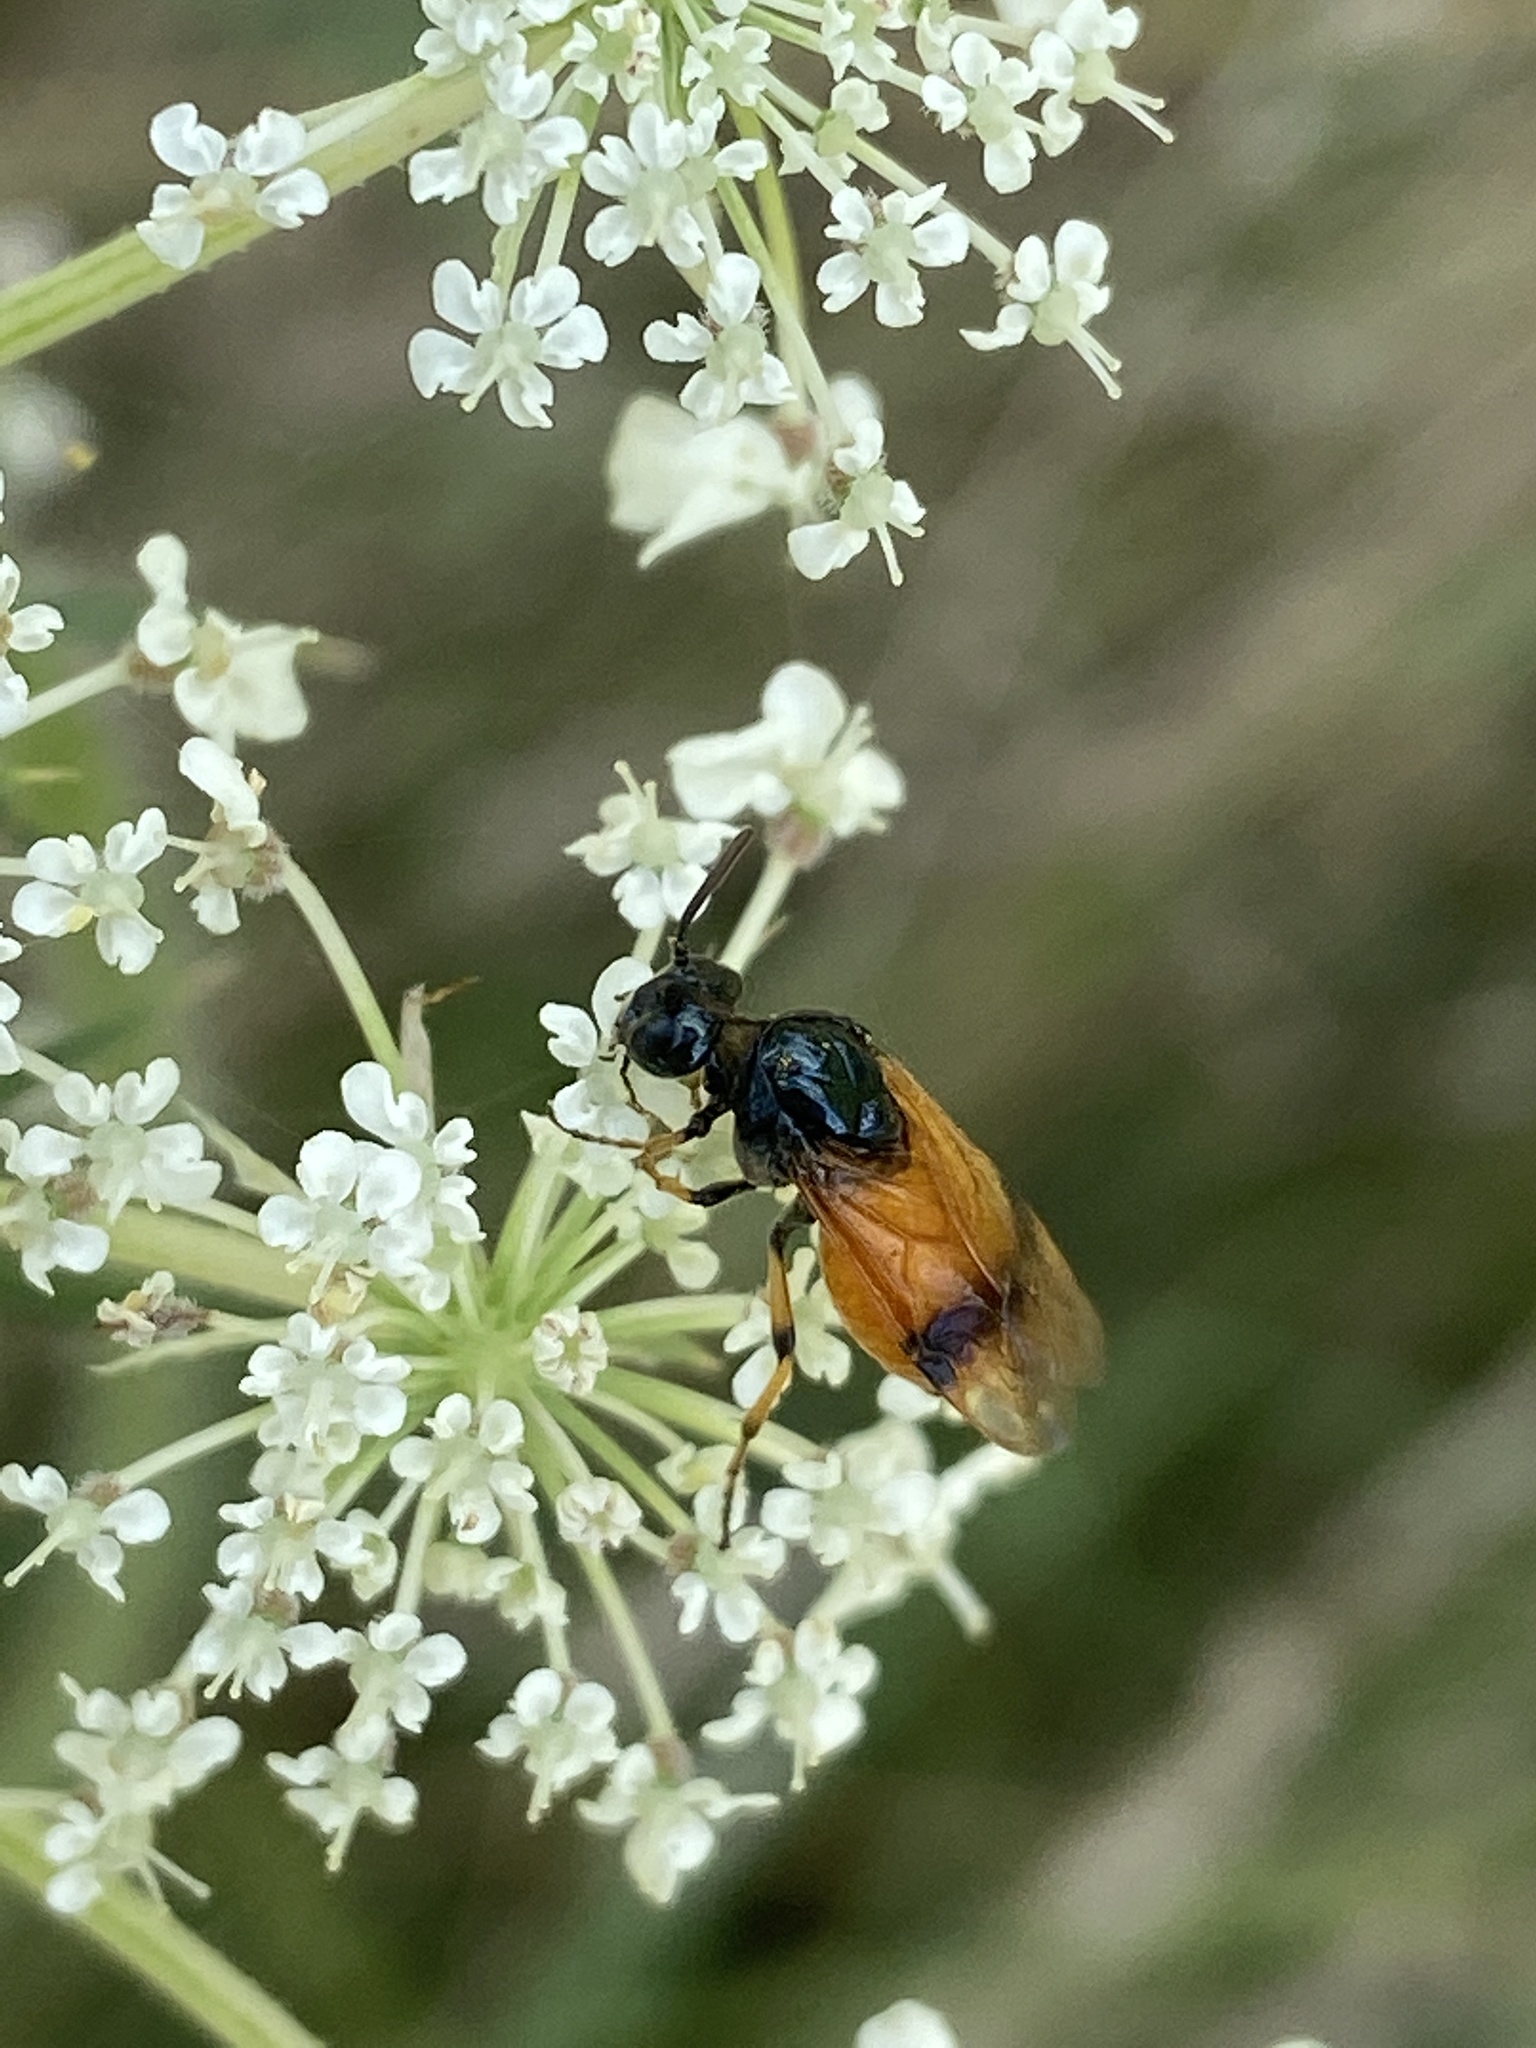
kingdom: Animalia
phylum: Arthropoda
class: Insecta
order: Hymenoptera
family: Argidae
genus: Arge
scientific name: Arge cyanocrocea
